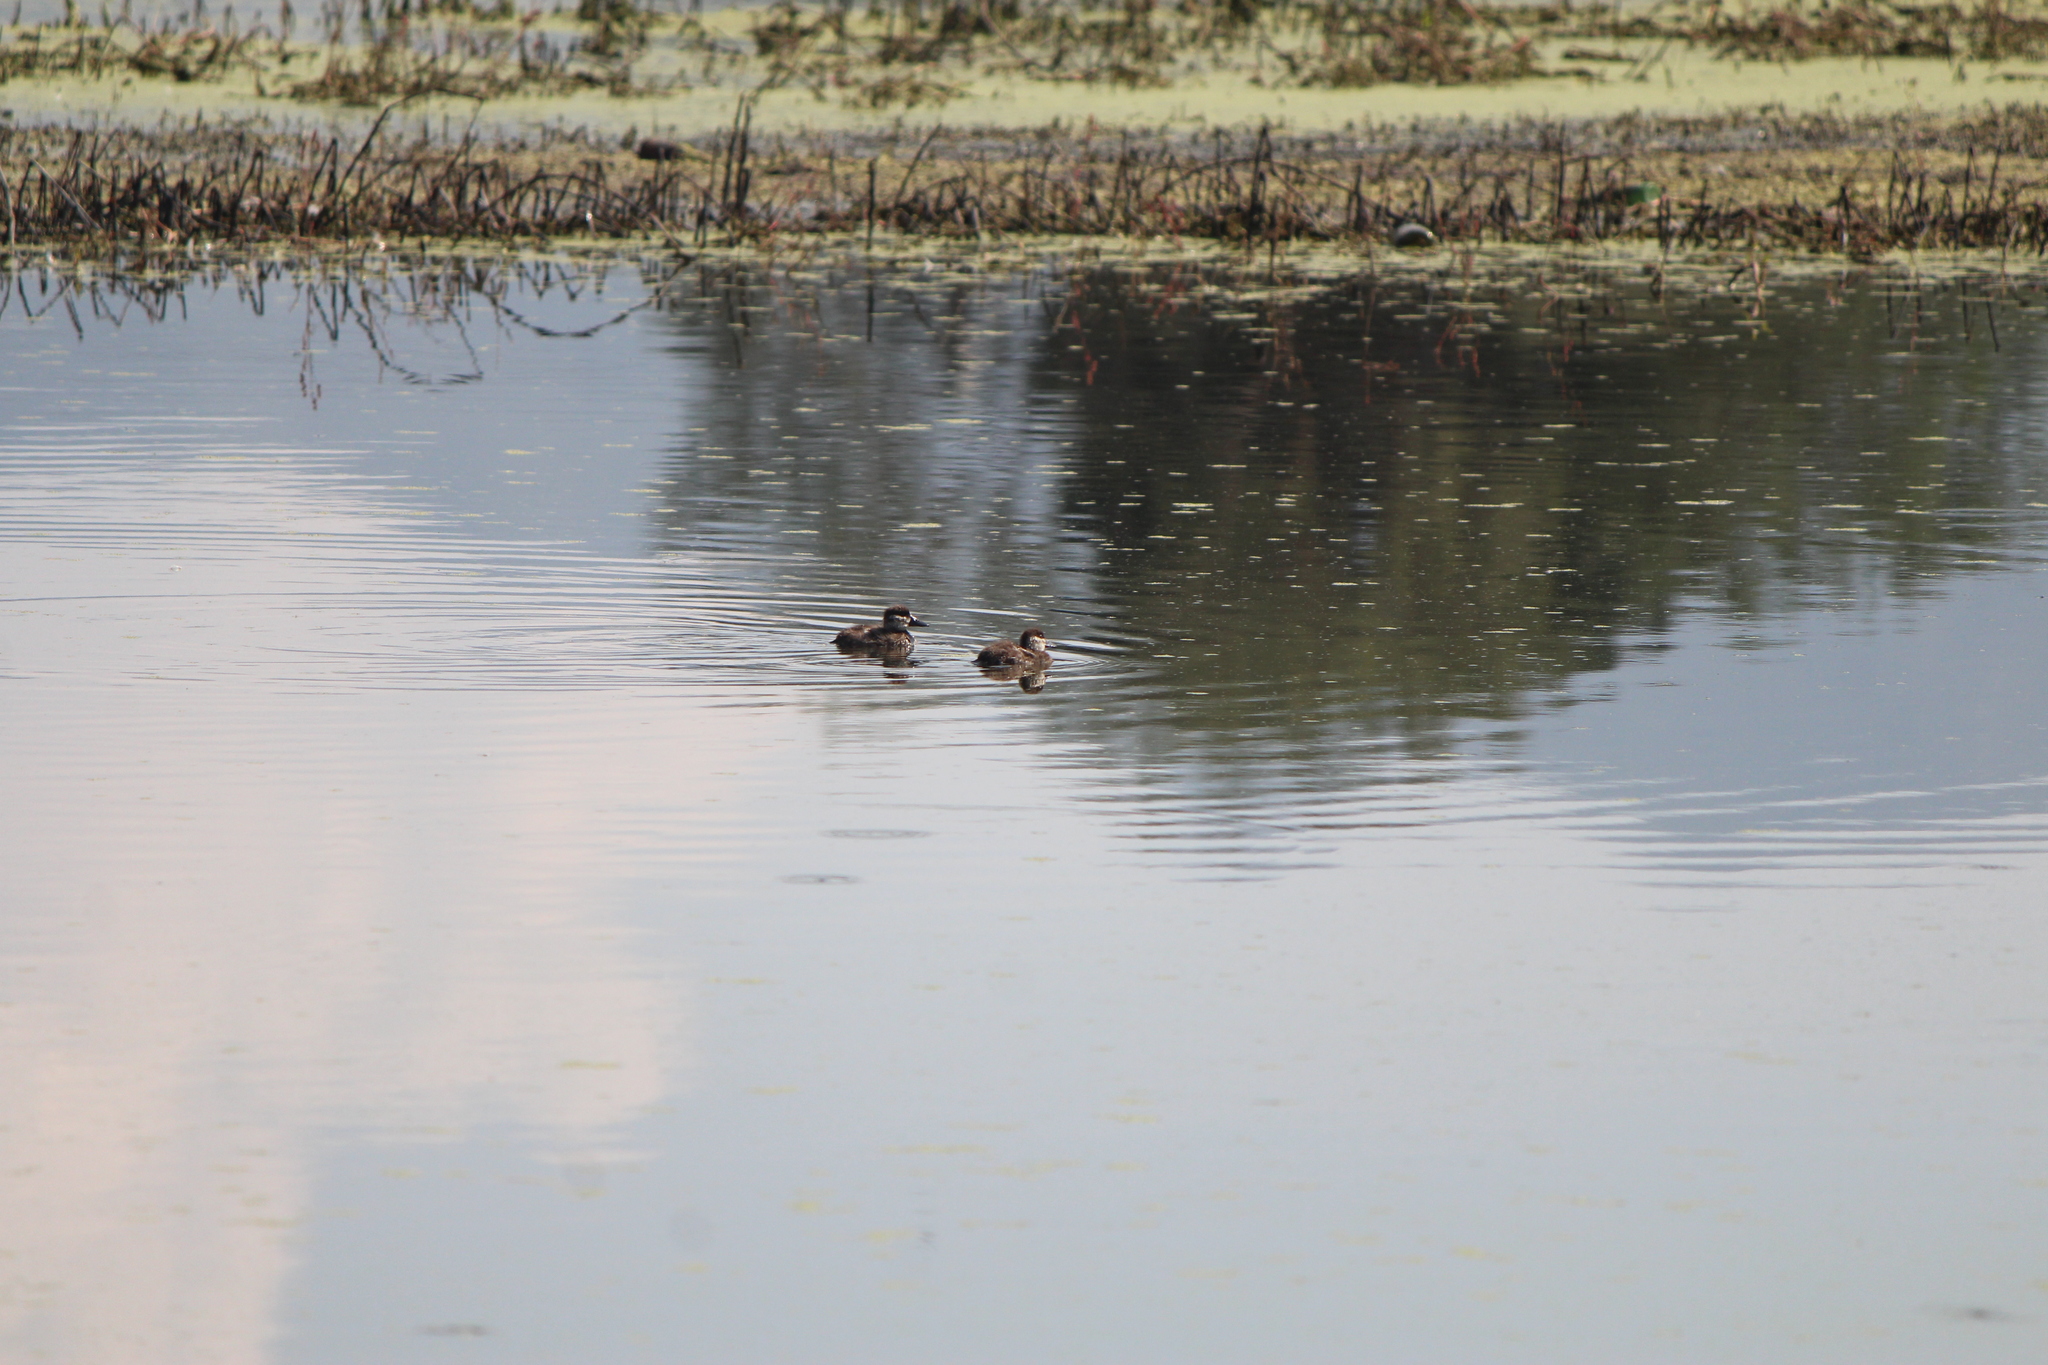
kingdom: Animalia
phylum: Chordata
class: Aves
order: Anseriformes
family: Anatidae
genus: Oxyura
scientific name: Oxyura jamaicensis
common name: Ruddy duck
